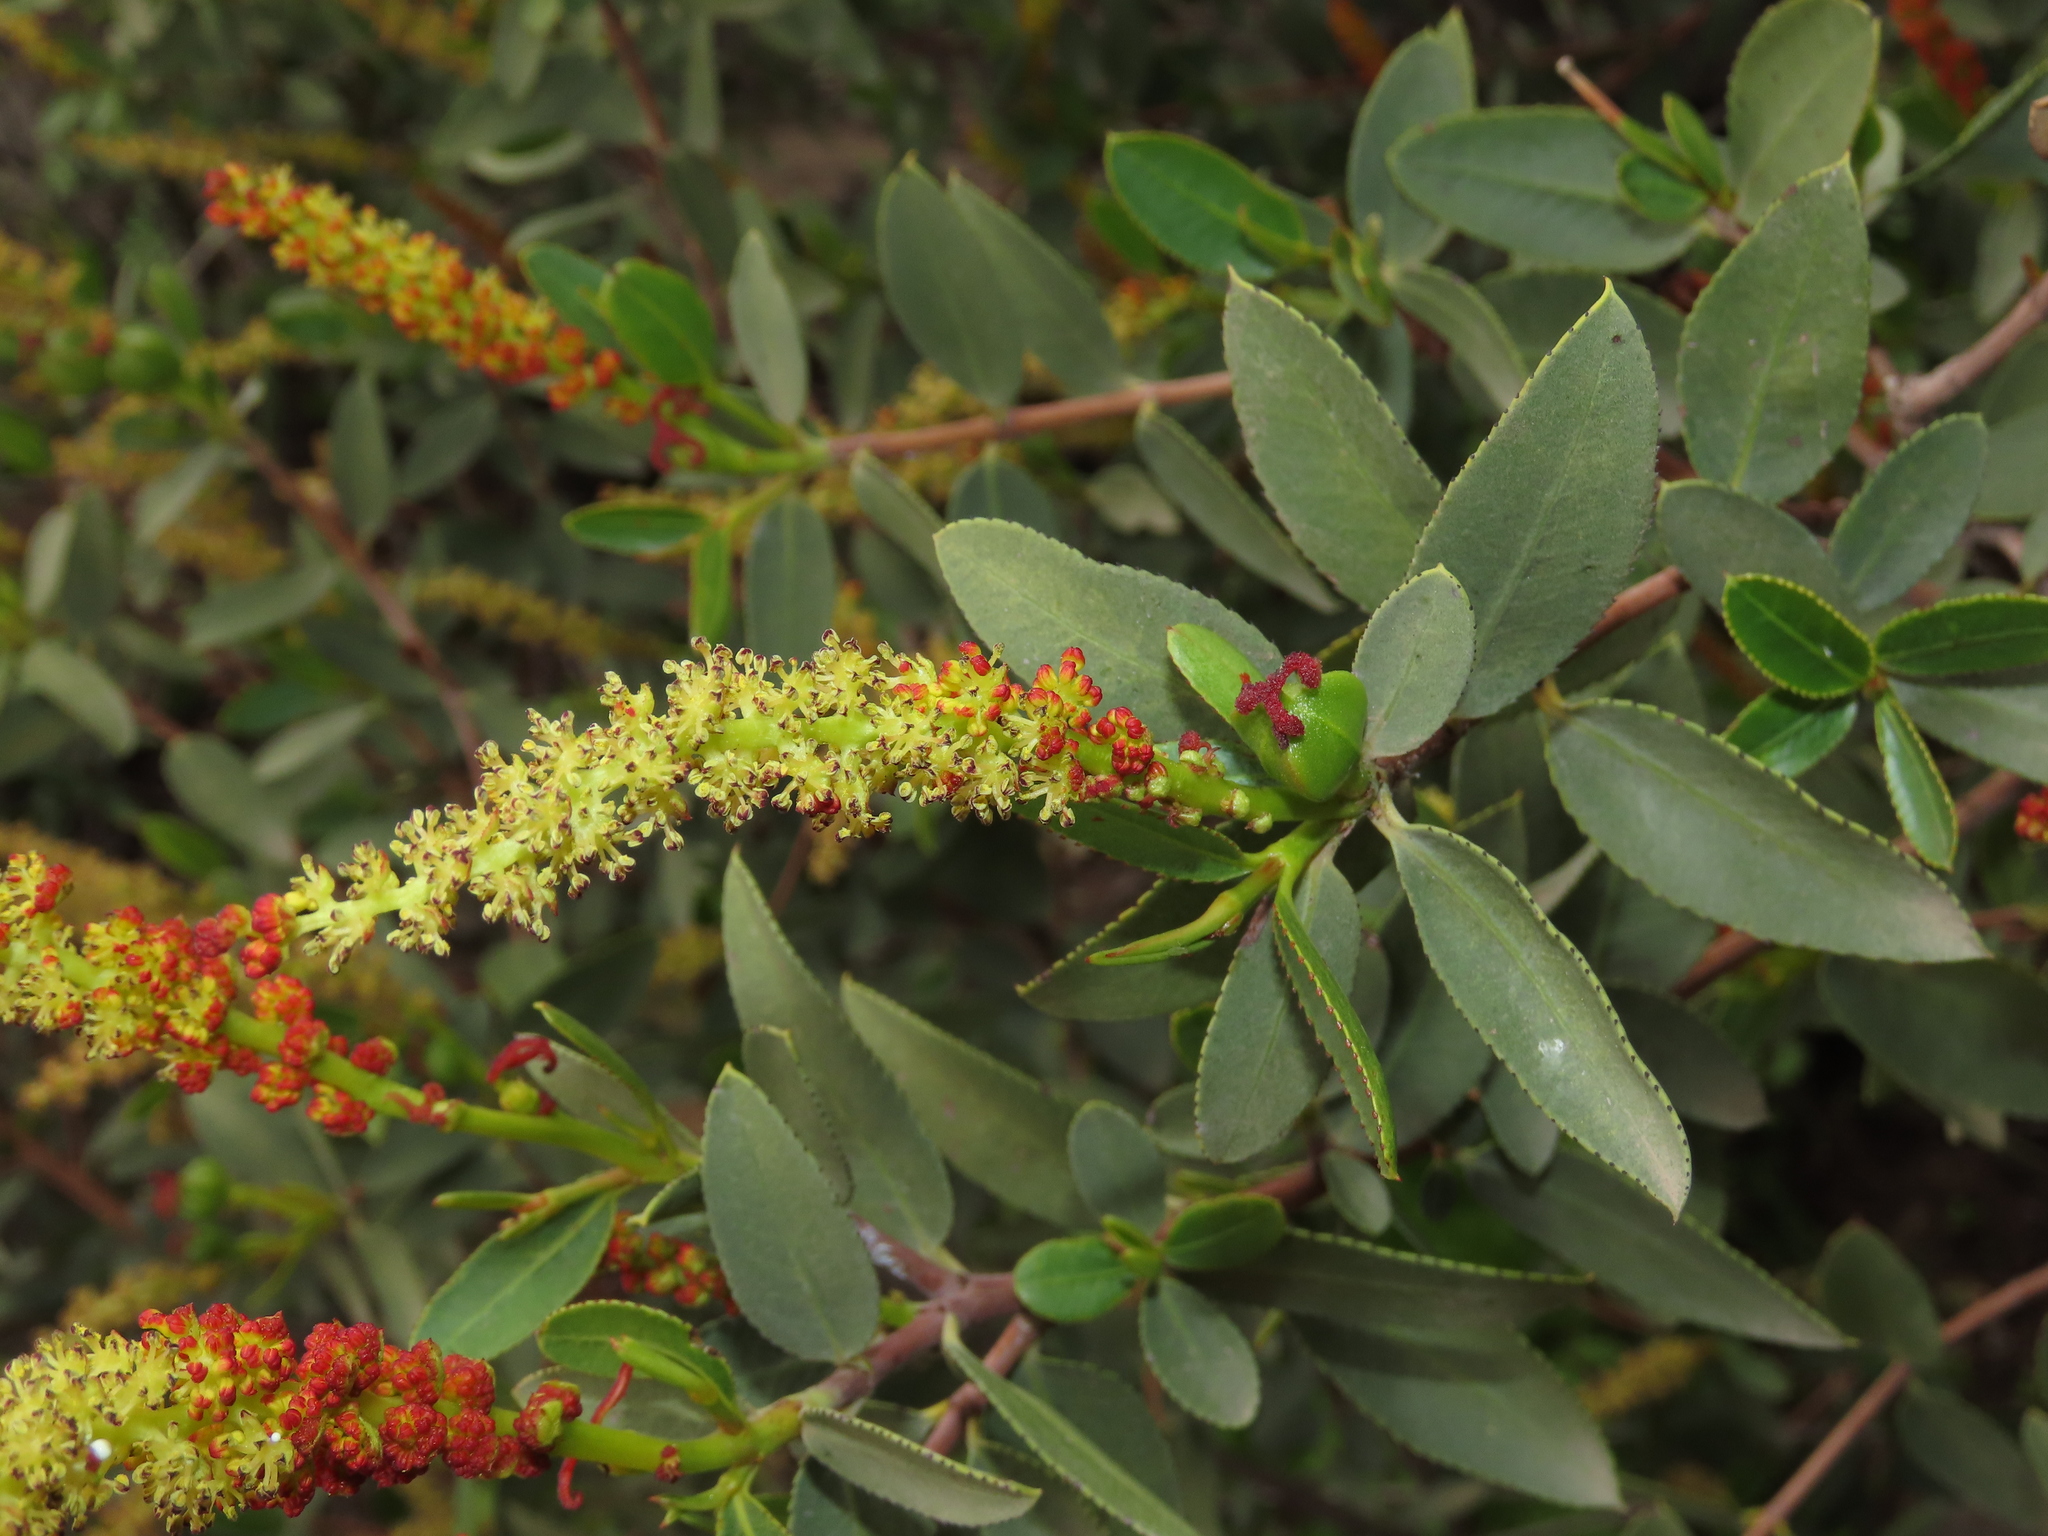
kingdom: Plantae
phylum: Tracheophyta
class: Magnoliopsida
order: Malpighiales
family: Euphorbiaceae
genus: Colliguaja
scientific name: Colliguaja odorifera
